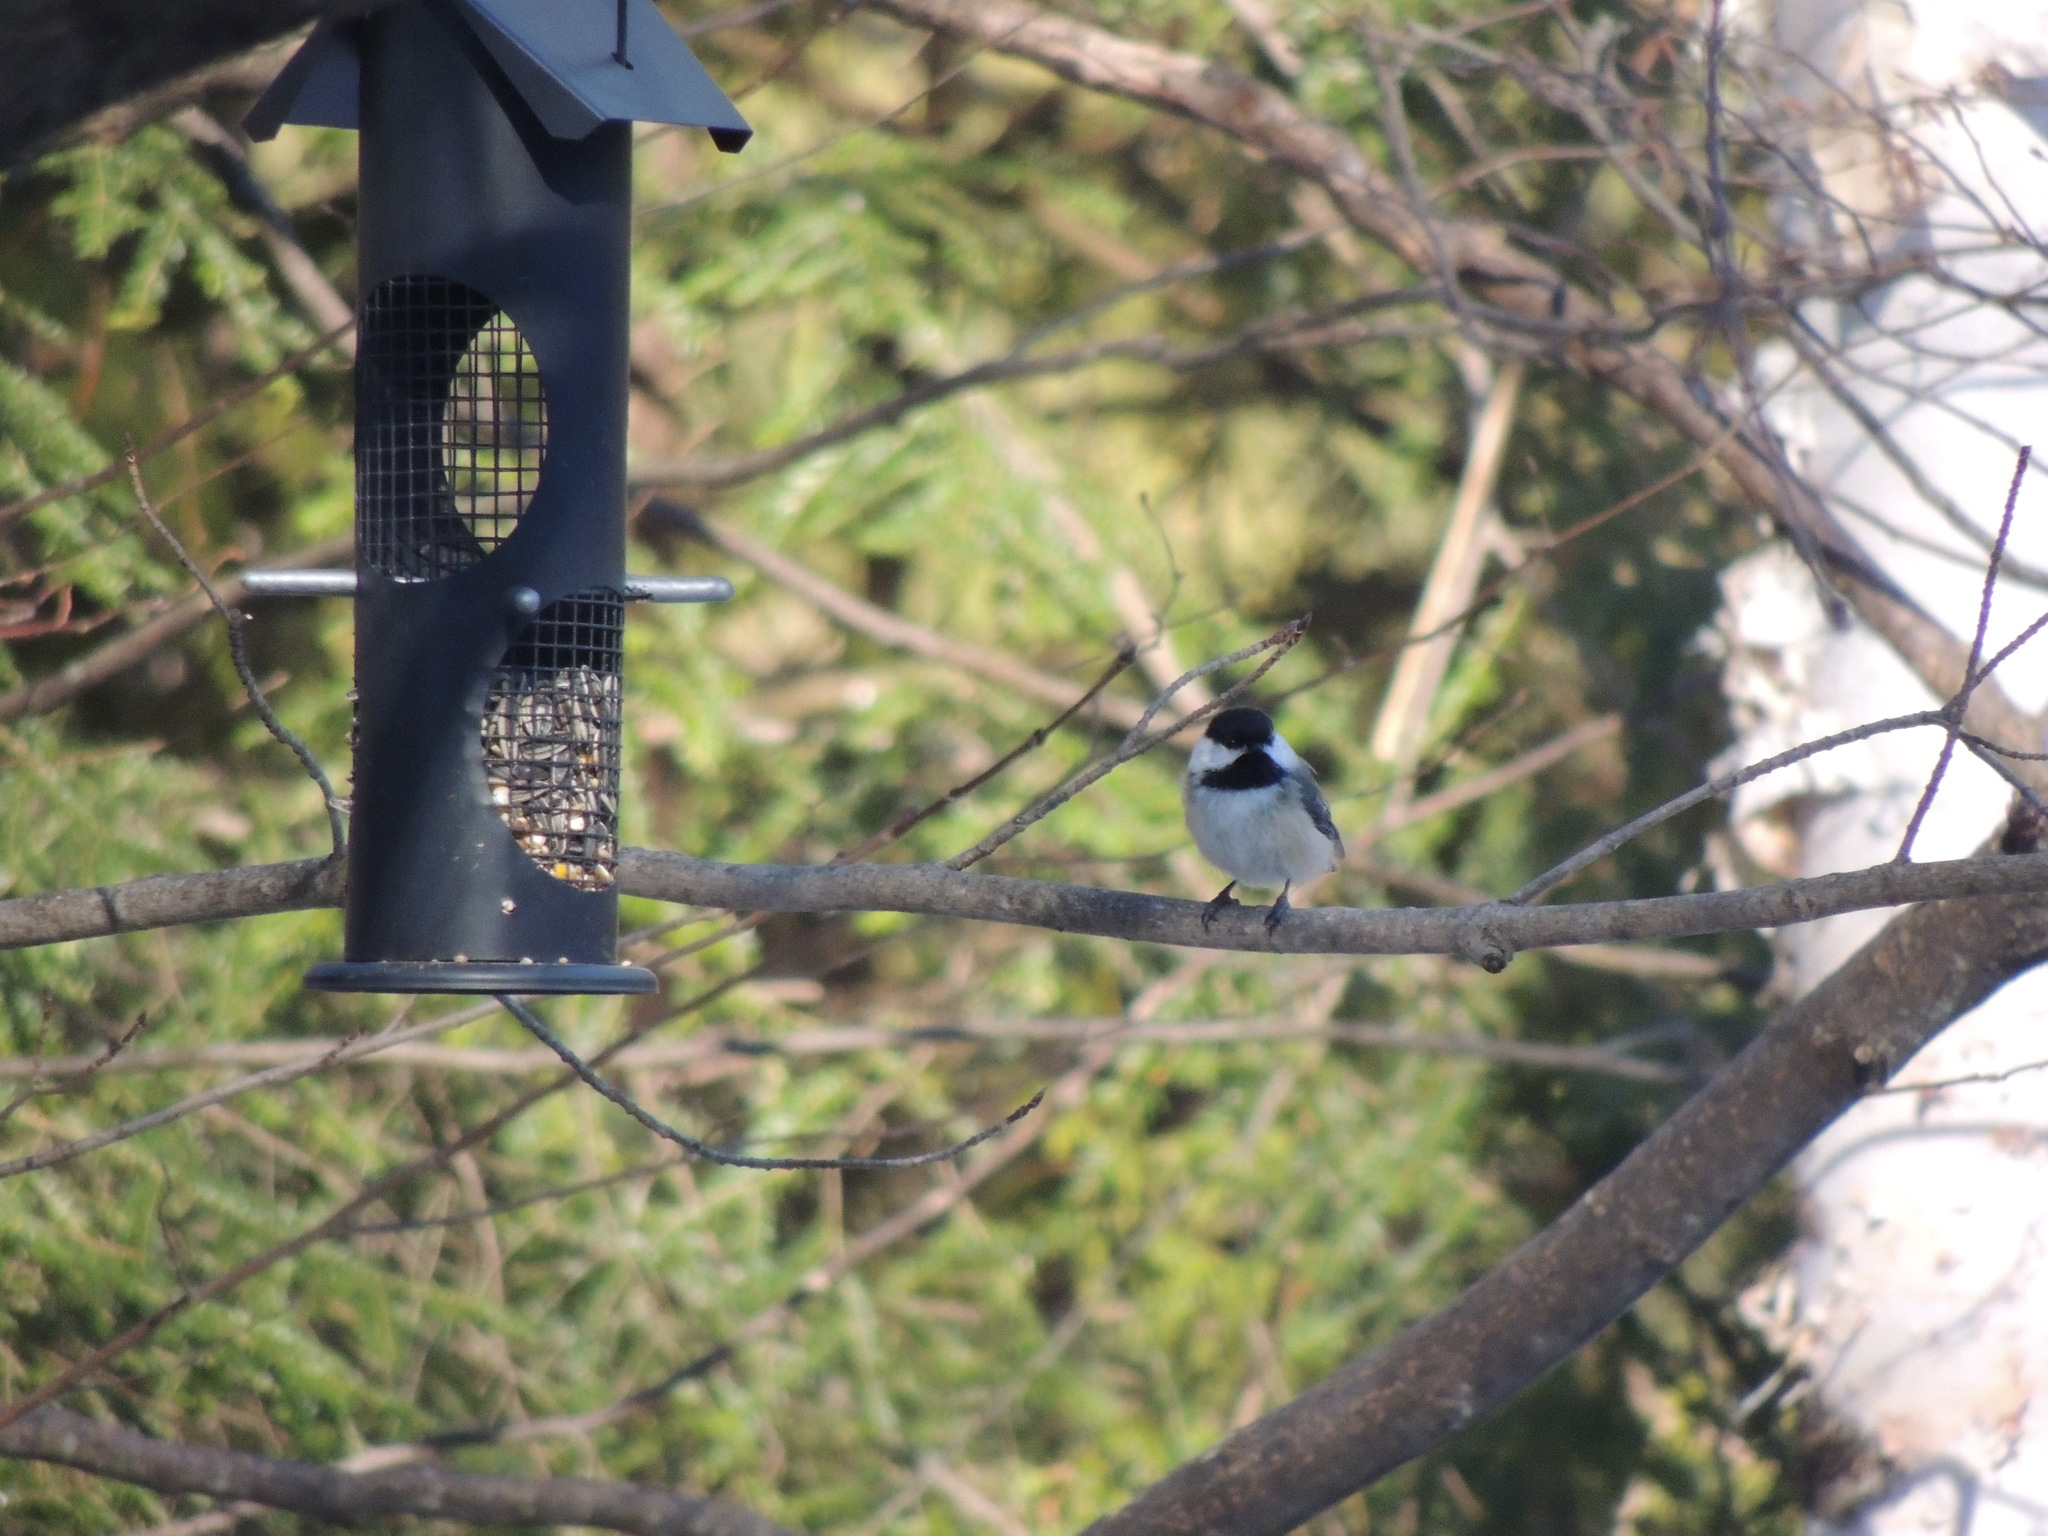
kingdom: Animalia
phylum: Chordata
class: Aves
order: Passeriformes
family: Paridae
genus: Poecile
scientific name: Poecile atricapillus
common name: Black-capped chickadee
